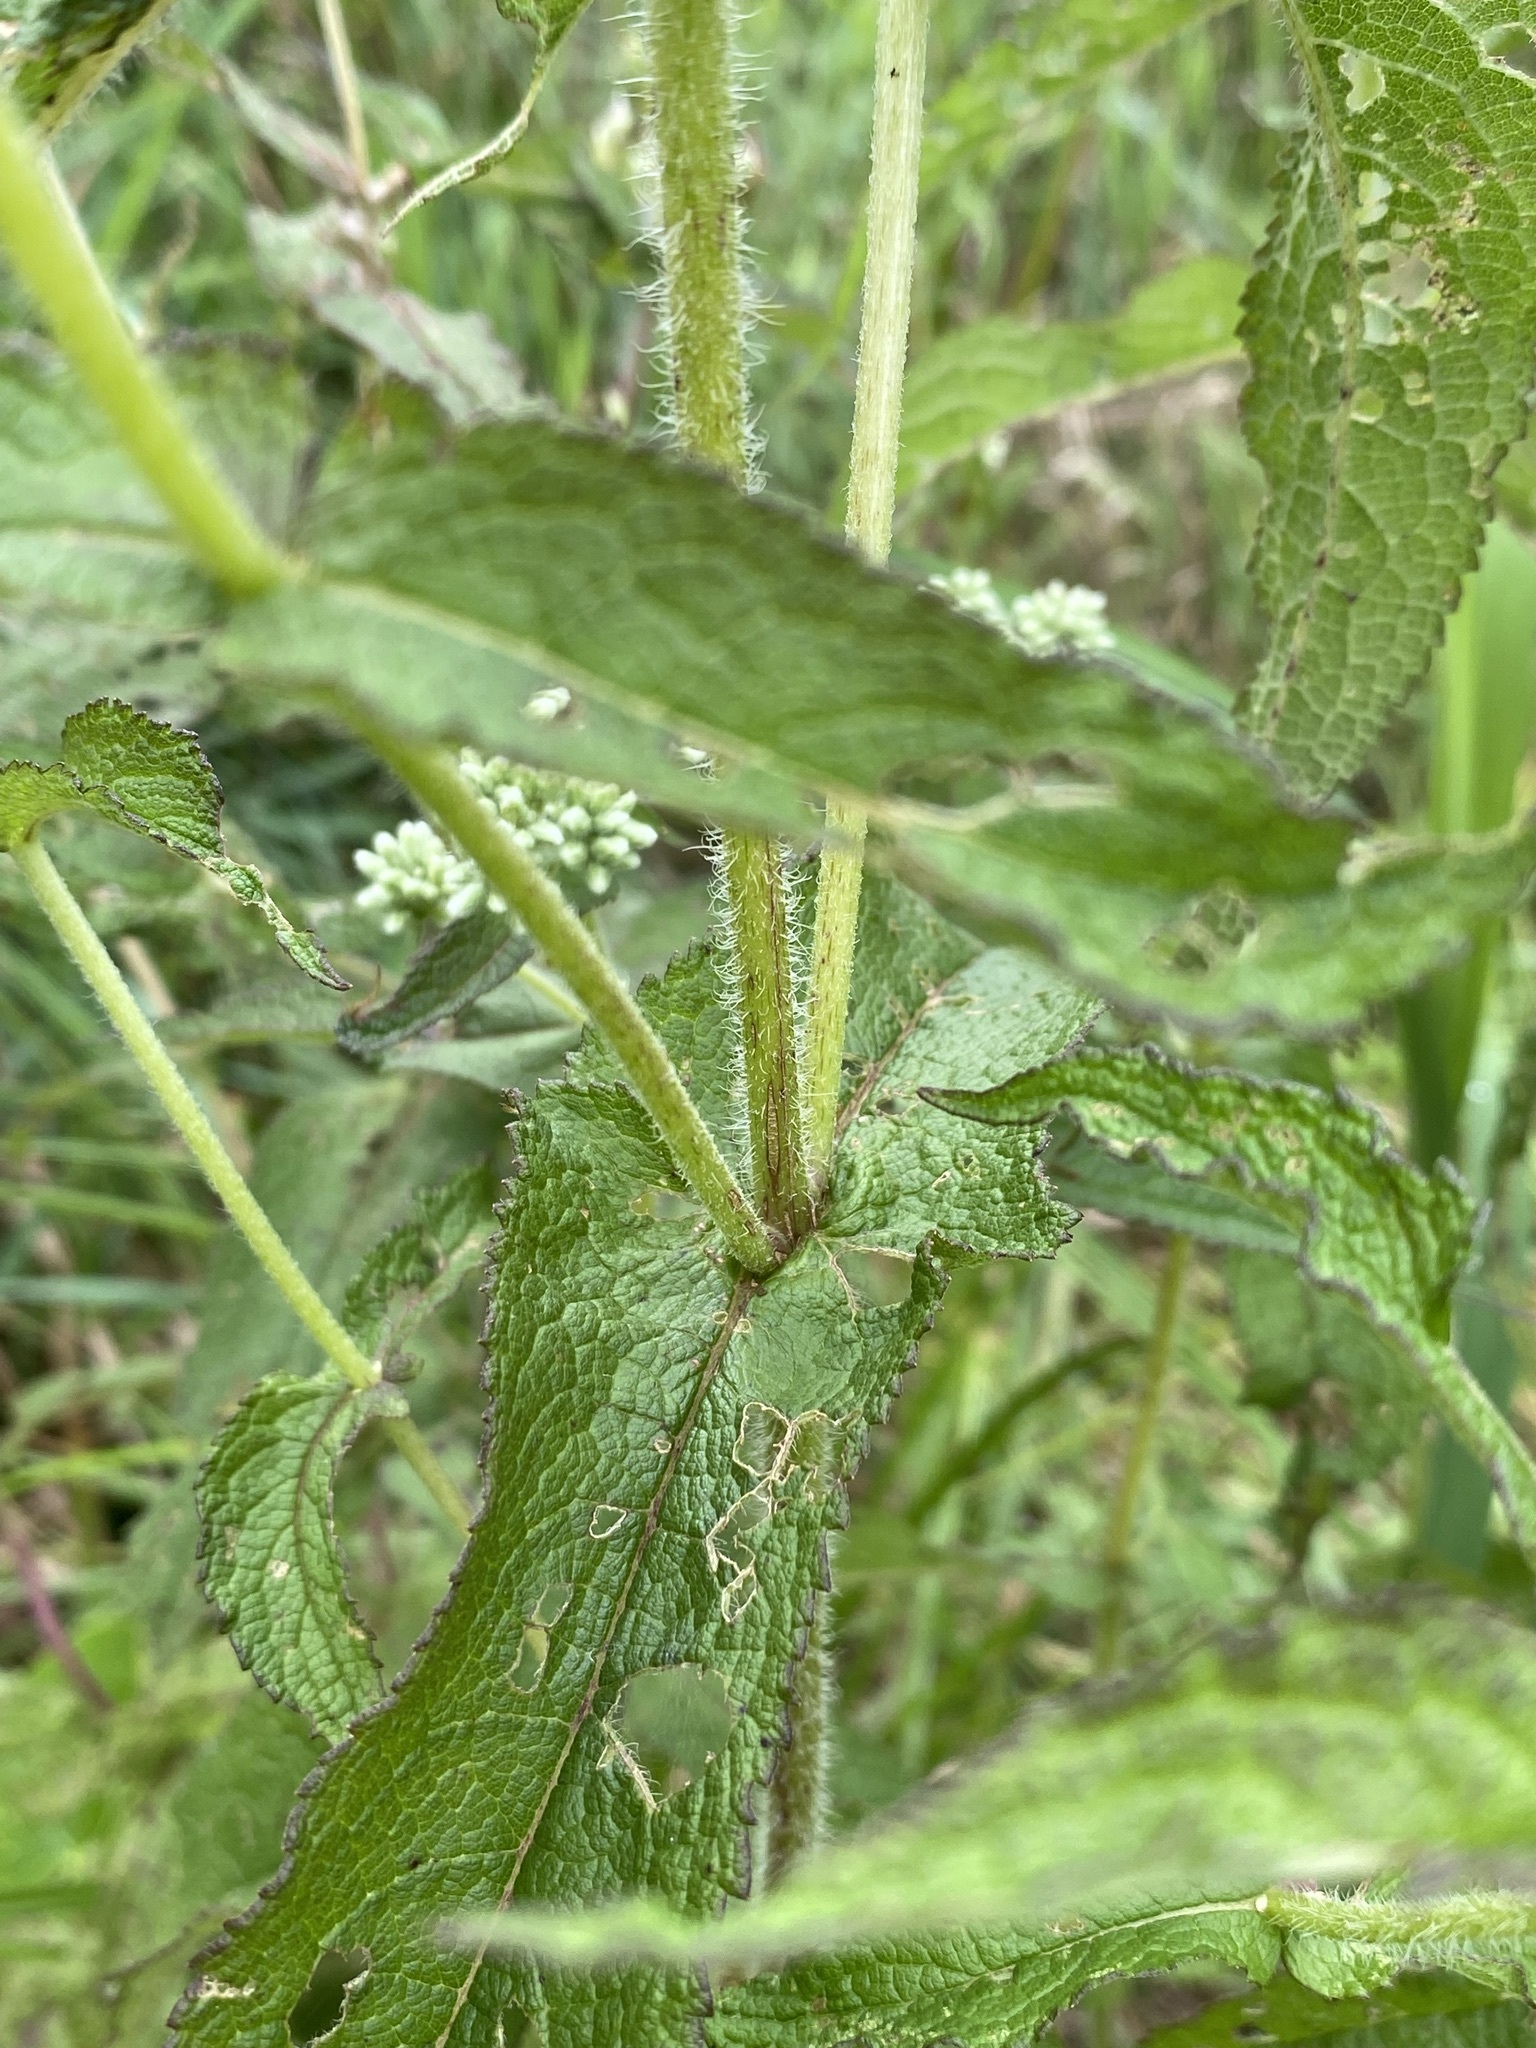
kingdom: Plantae
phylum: Tracheophyta
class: Magnoliopsida
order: Asterales
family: Asteraceae
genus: Eupatorium
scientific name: Eupatorium perfoliatum
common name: Boneset
